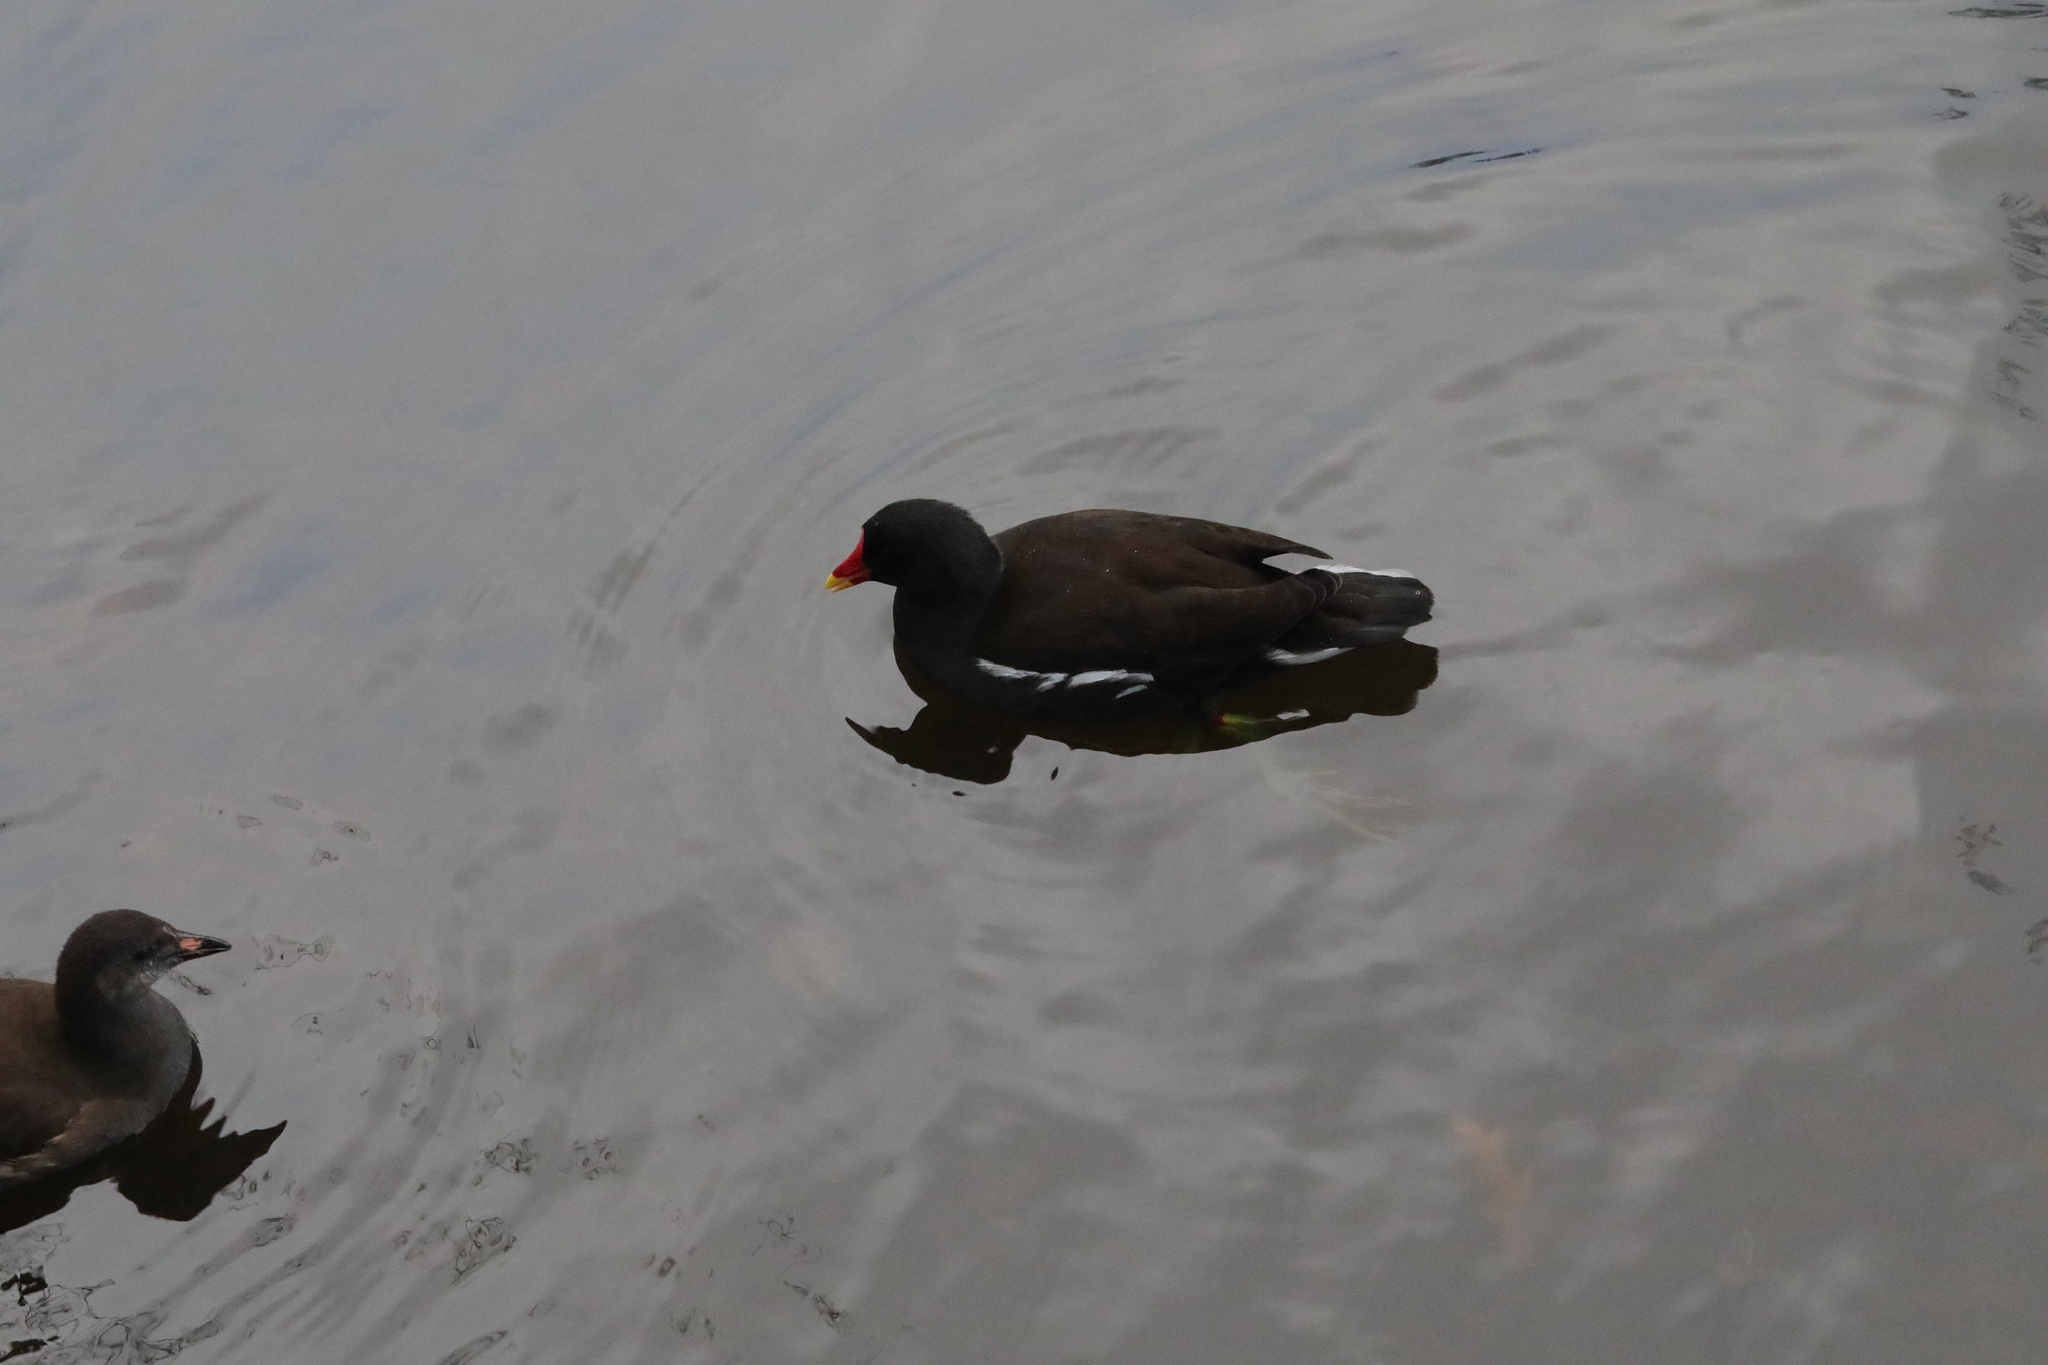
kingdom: Animalia
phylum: Chordata
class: Aves
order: Gruiformes
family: Rallidae
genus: Gallinula
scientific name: Gallinula chloropus
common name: Common moorhen
